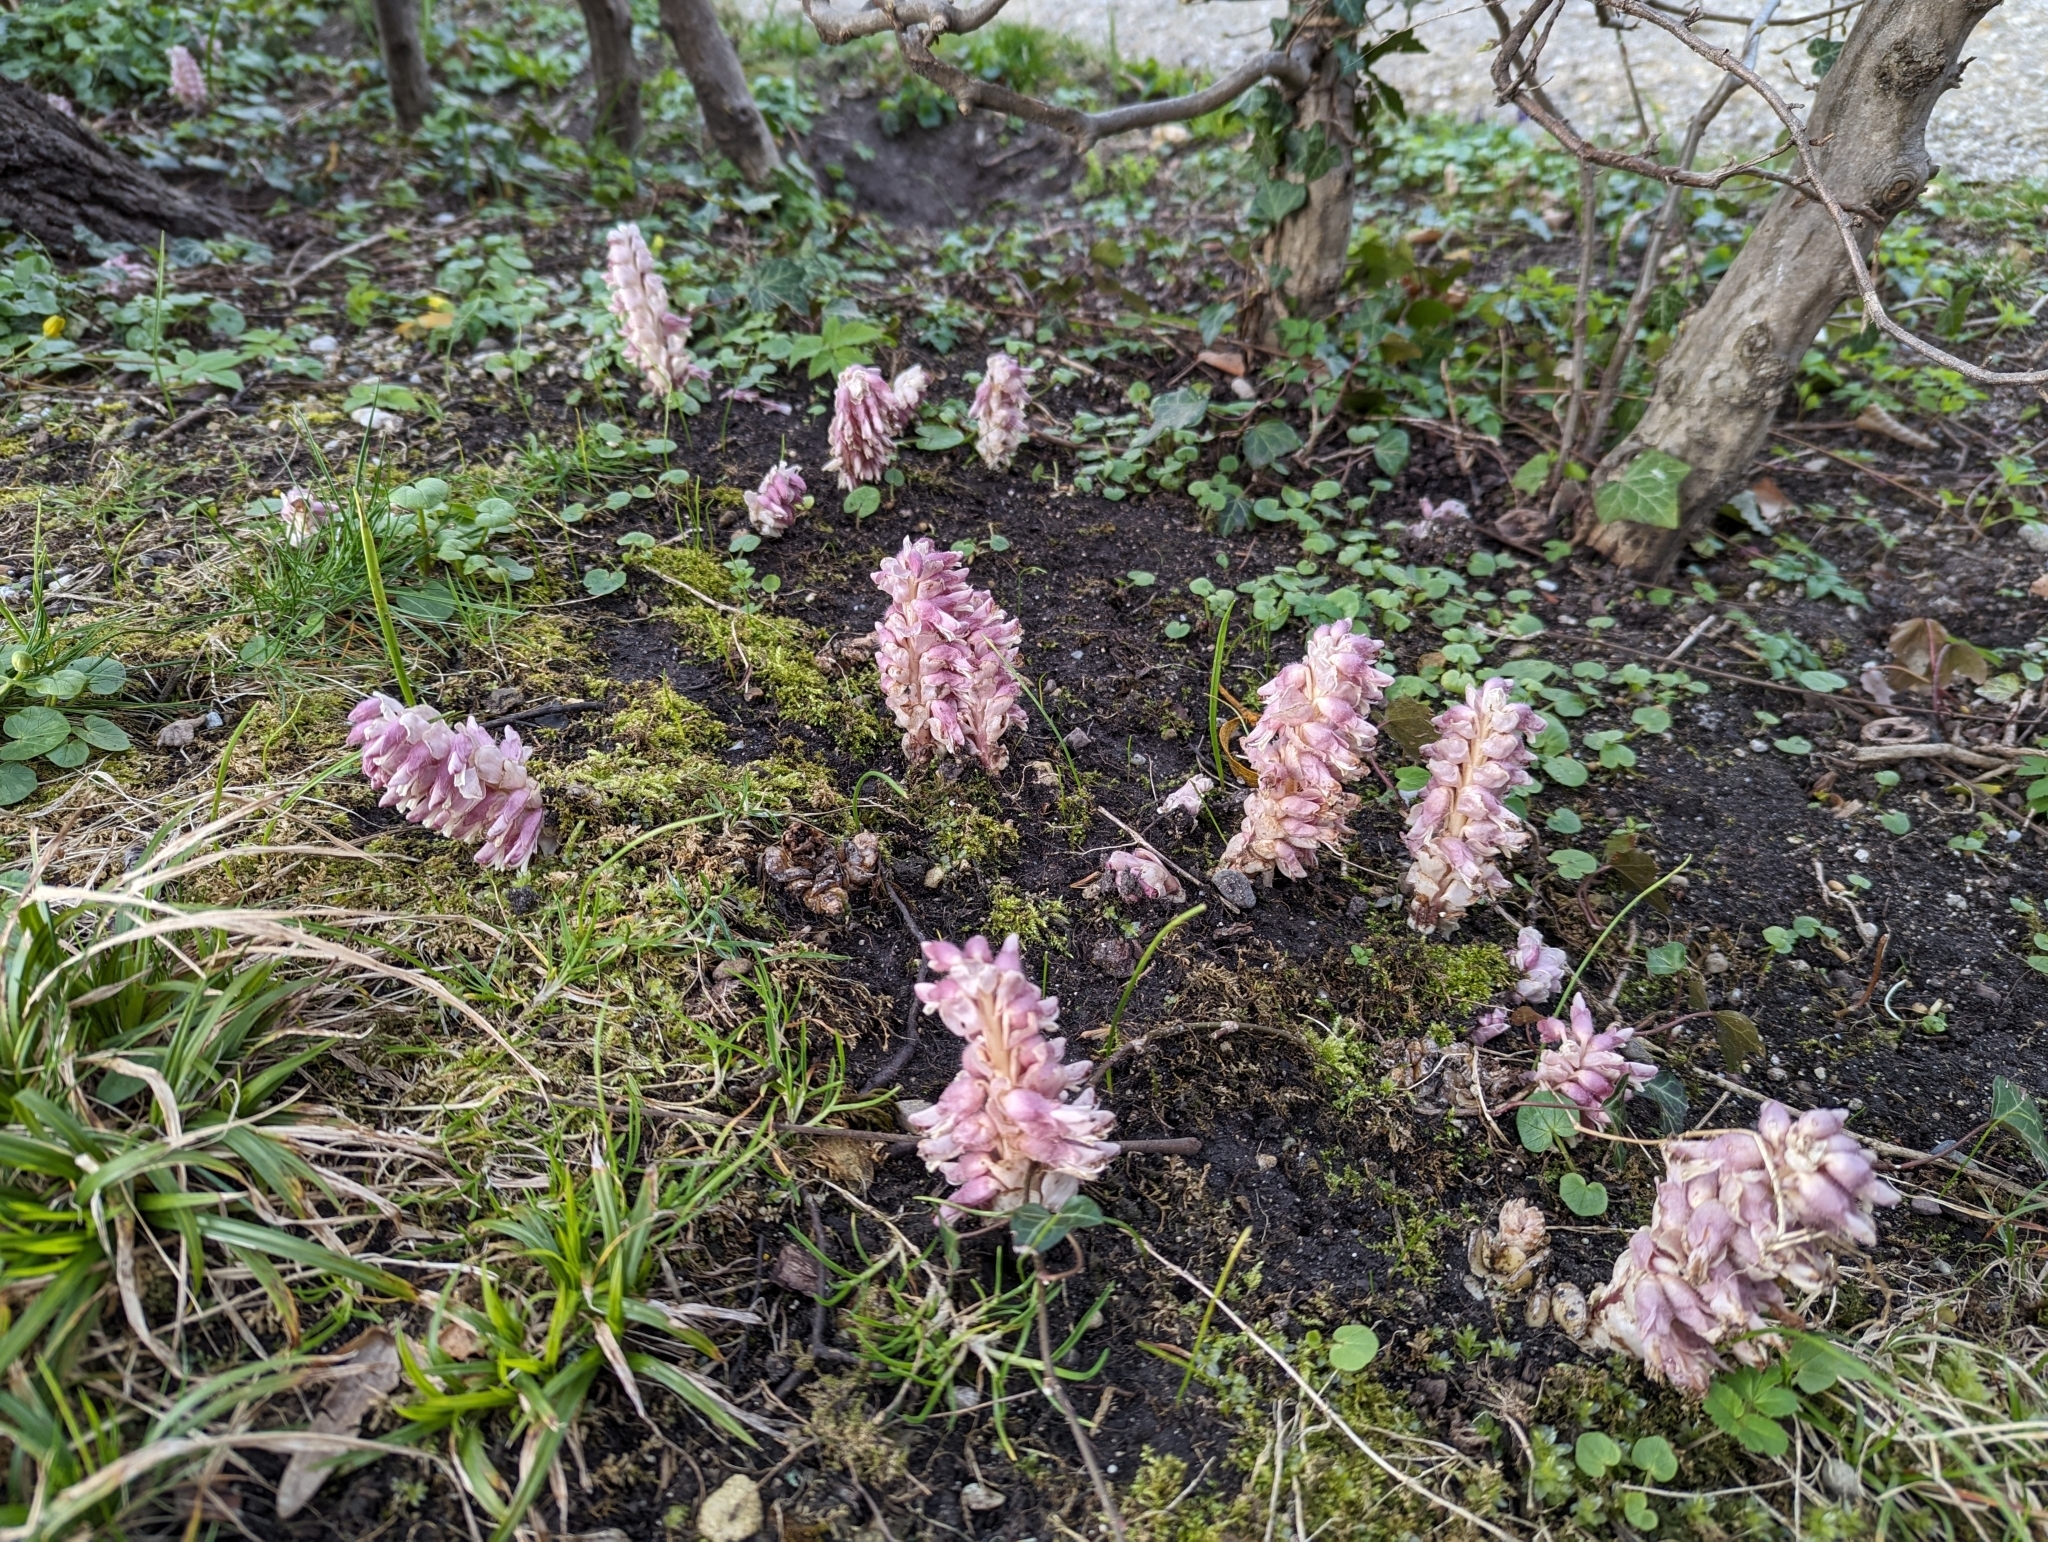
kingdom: Plantae
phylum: Tracheophyta
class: Magnoliopsida
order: Lamiales
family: Orobanchaceae
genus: Lathraea
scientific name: Lathraea squamaria
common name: Toothwort
